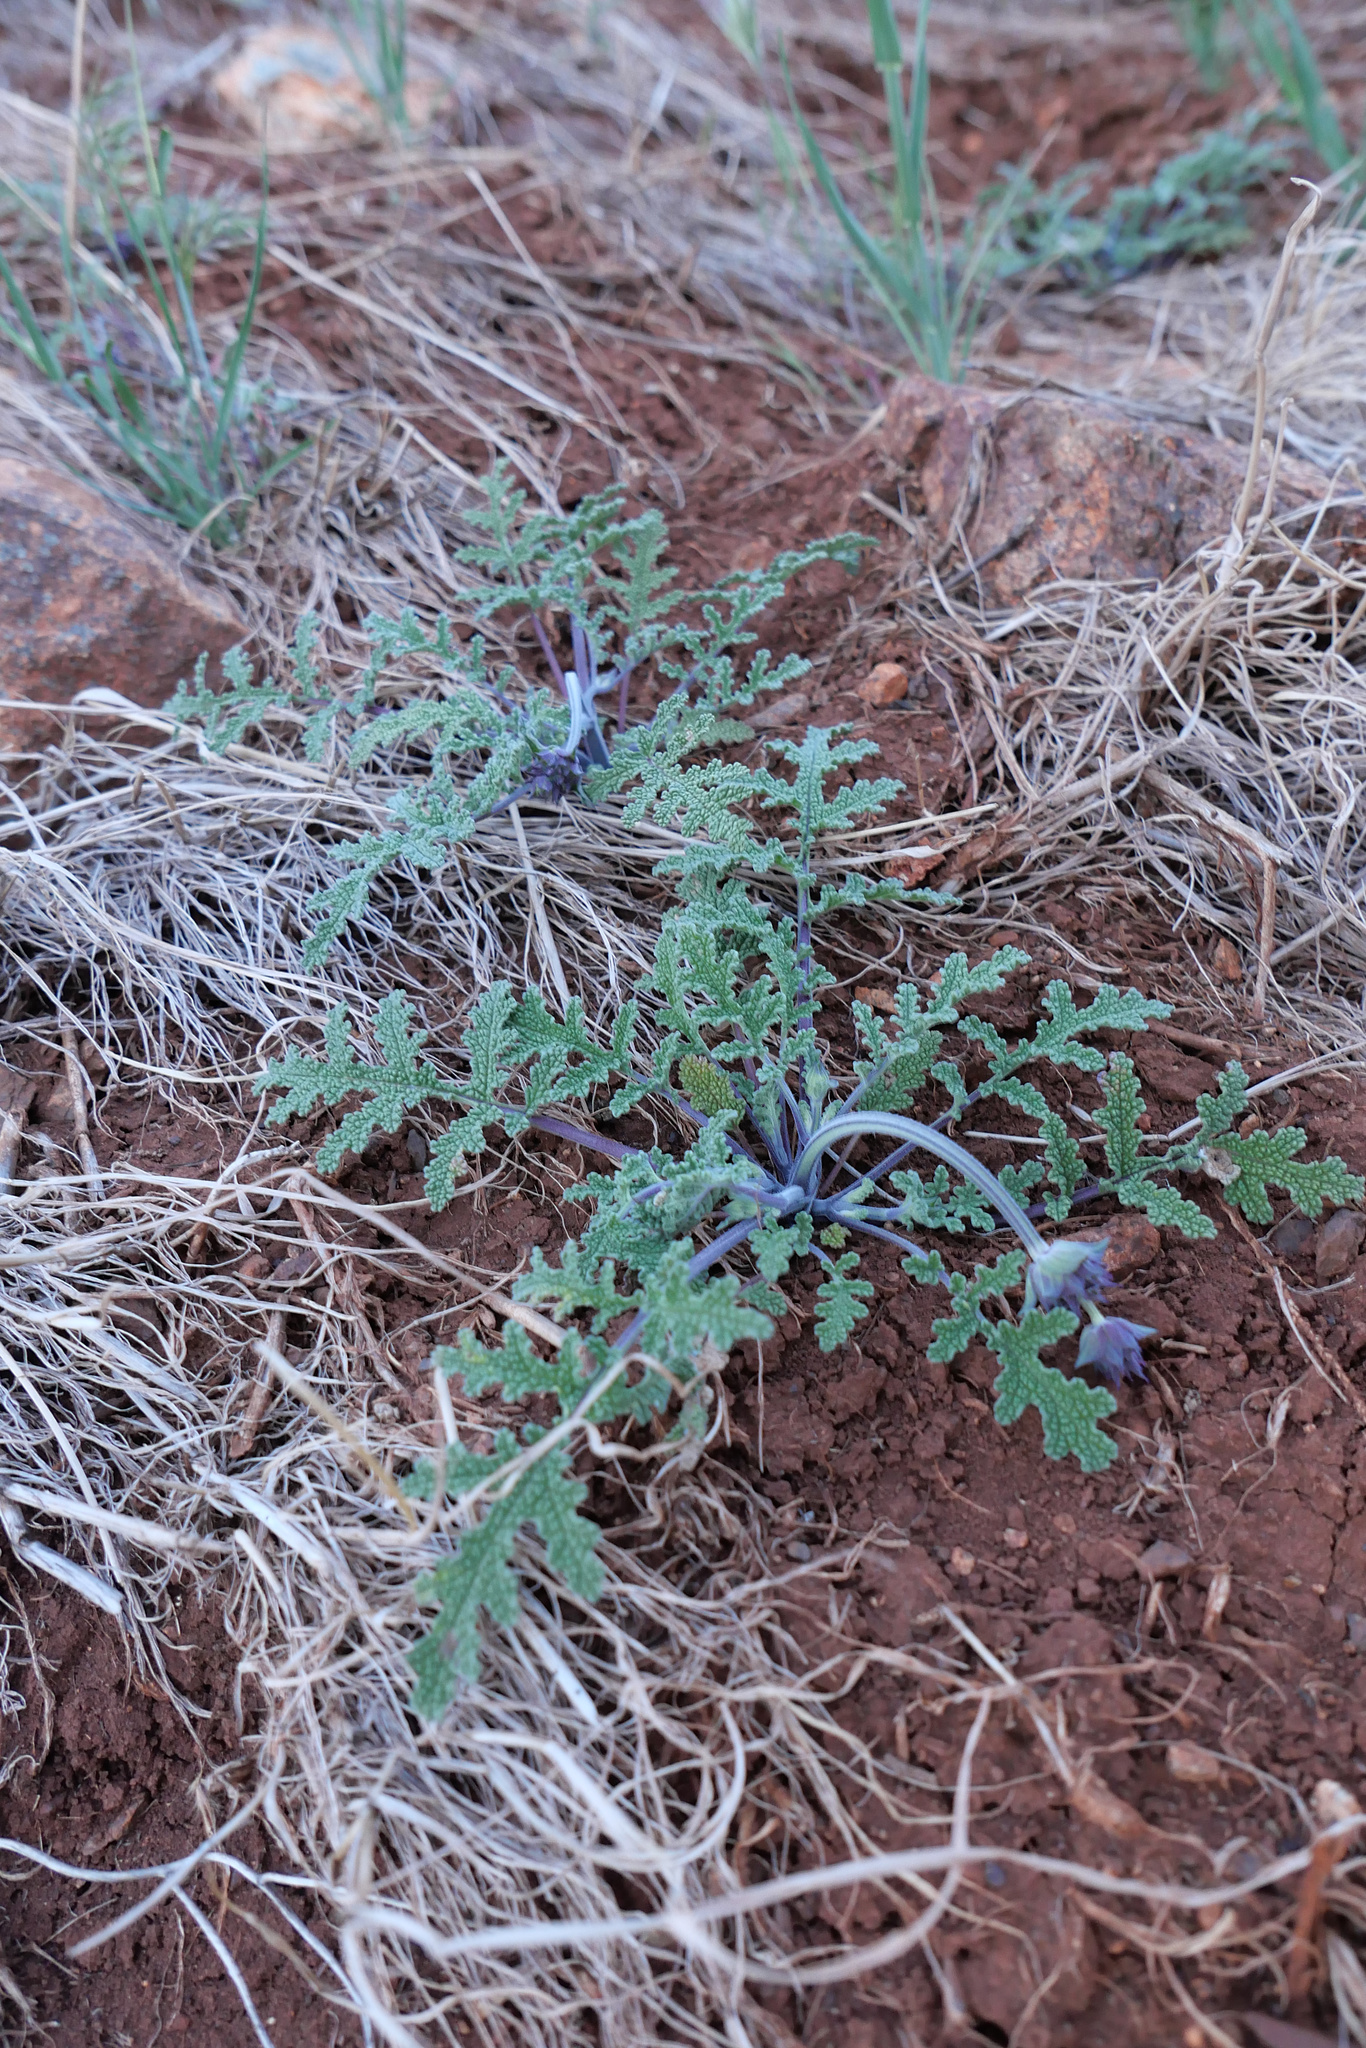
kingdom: Plantae
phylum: Tracheophyta
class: Magnoliopsida
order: Lamiales
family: Lamiaceae
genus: Salvia
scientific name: Salvia columbariae
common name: Chia
